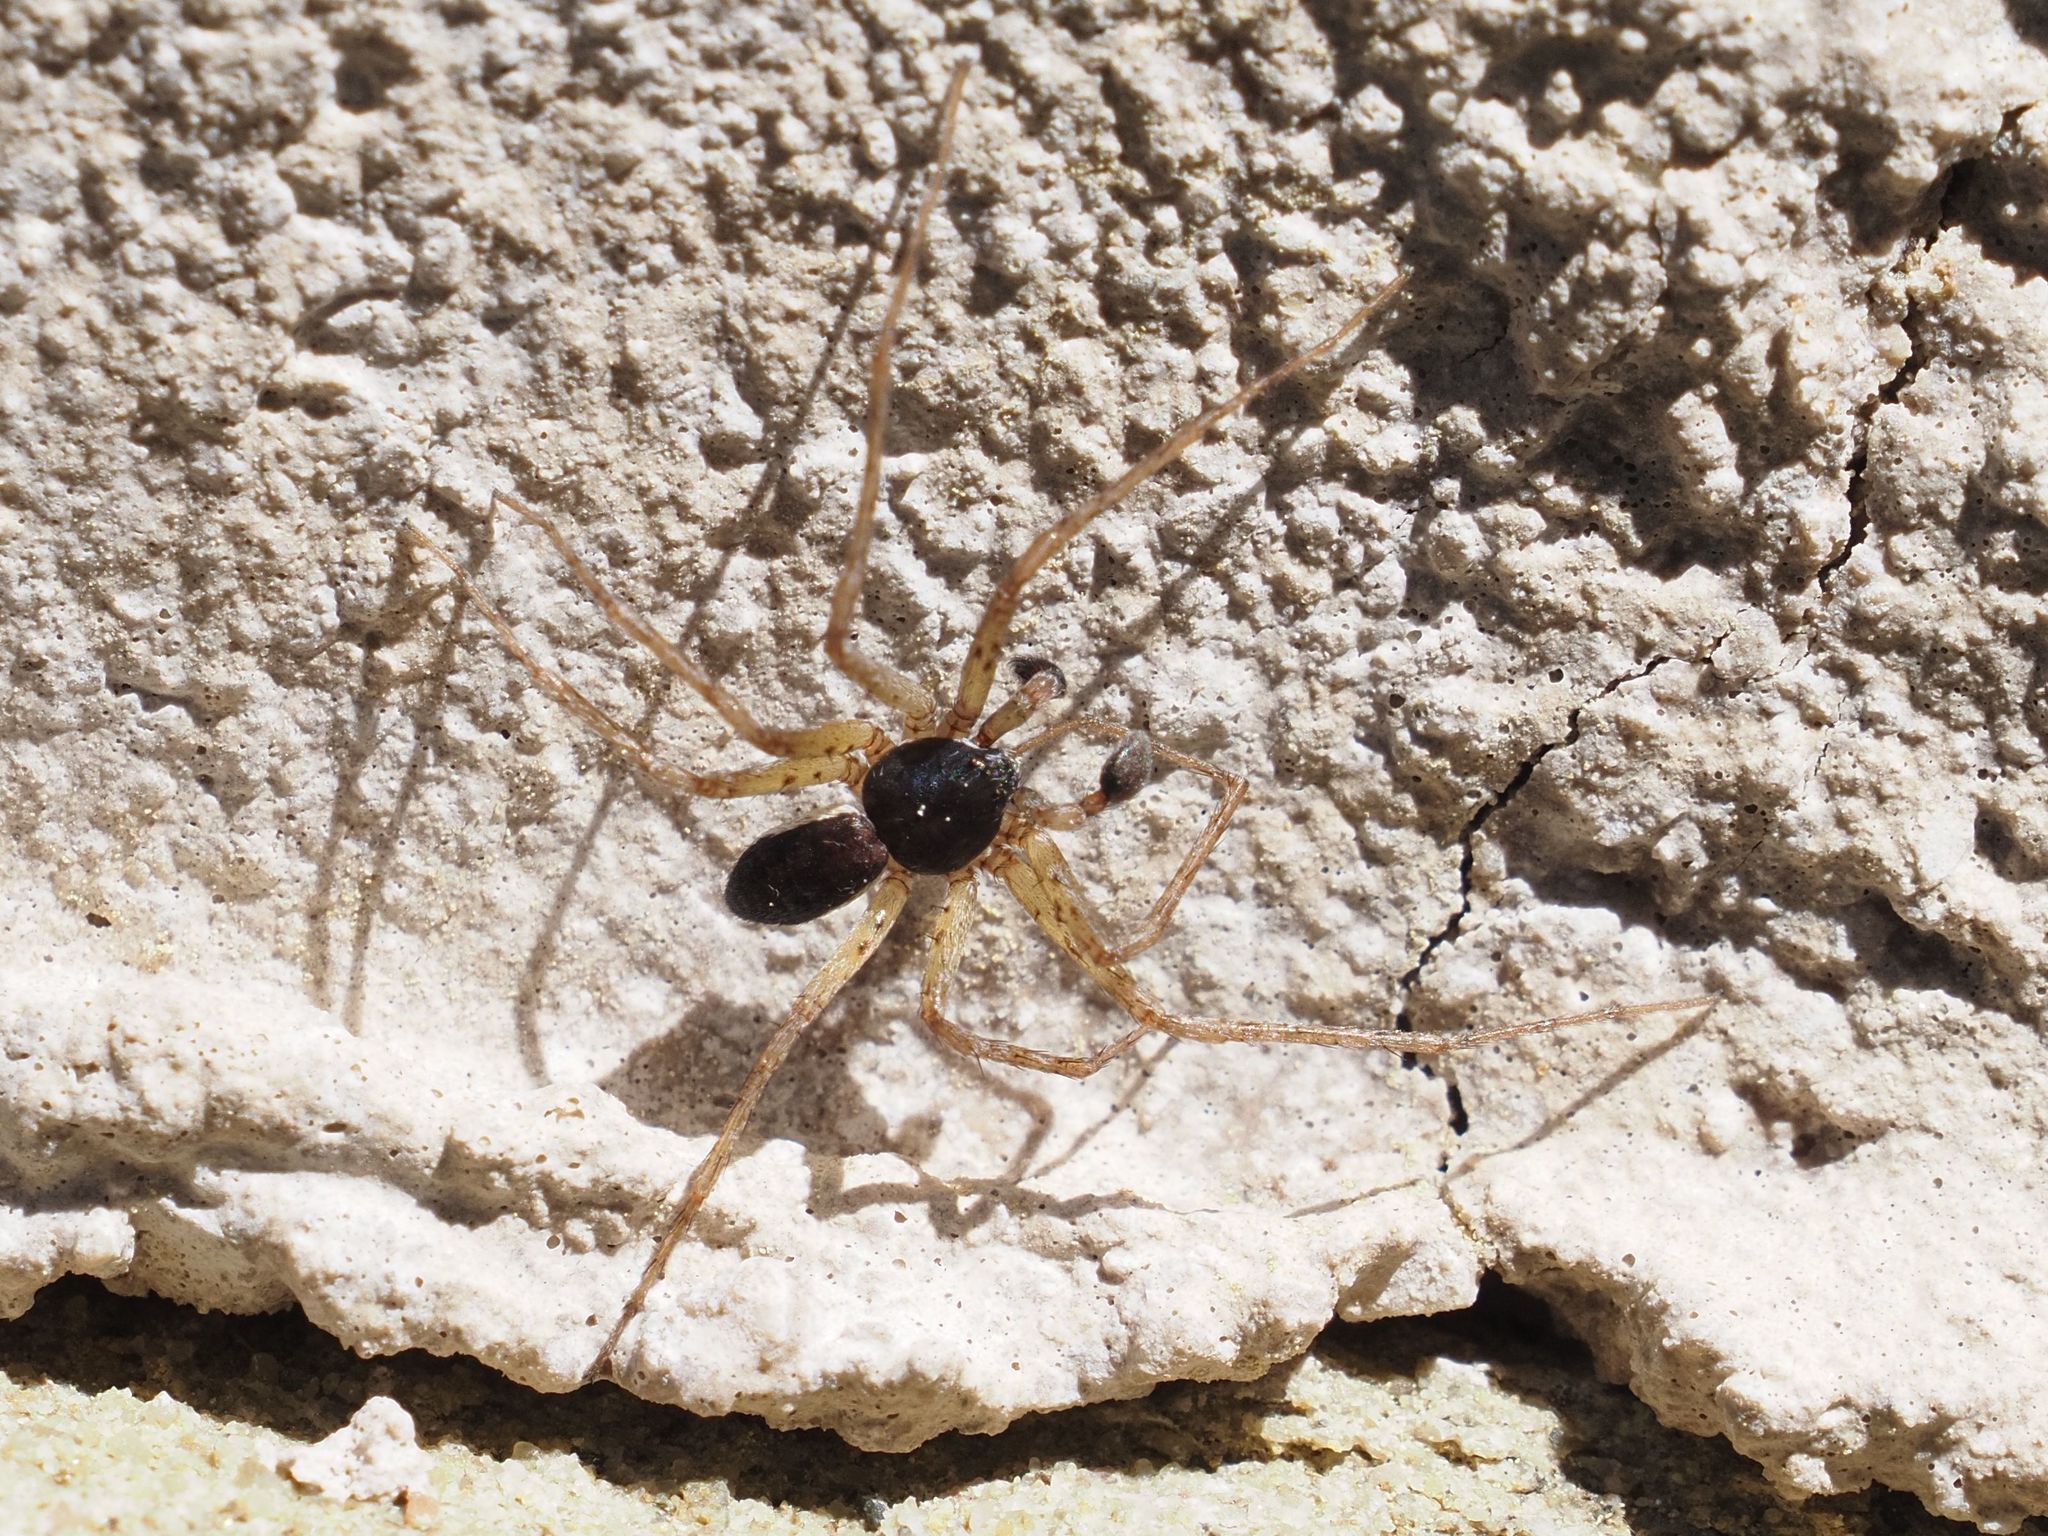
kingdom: Animalia
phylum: Arthropoda
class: Arachnida
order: Araneae
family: Philodromidae
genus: Philodromus
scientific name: Philodromus dispar
